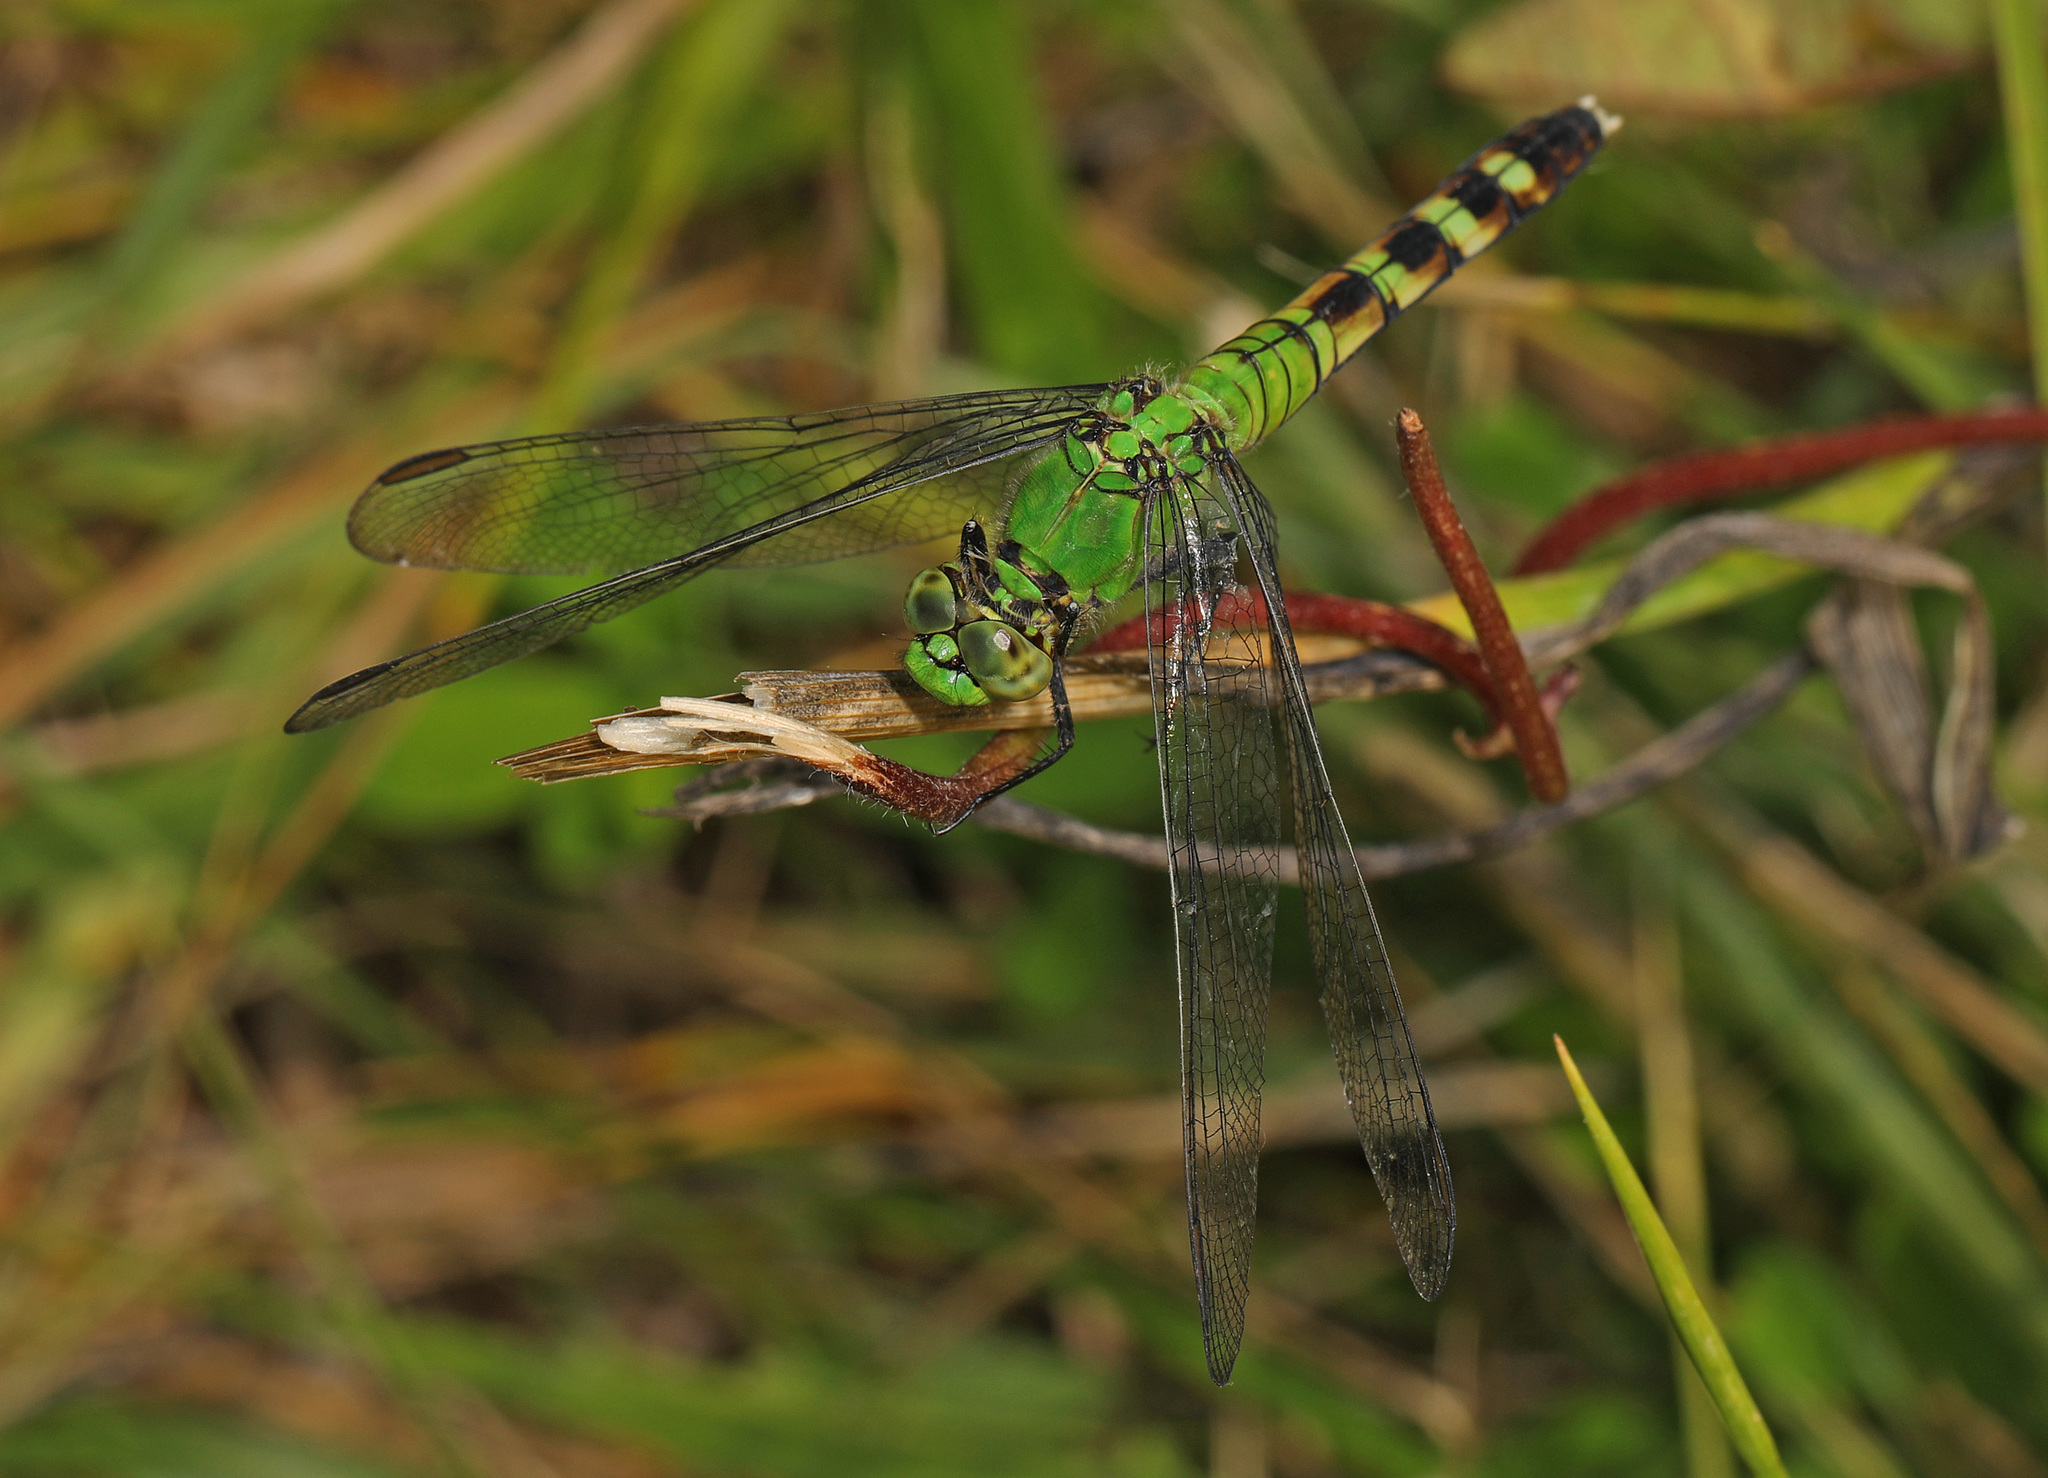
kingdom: Animalia
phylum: Arthropoda
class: Insecta
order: Odonata
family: Libellulidae
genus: Erythemis
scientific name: Erythemis simplicicollis
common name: Eastern pondhawk
